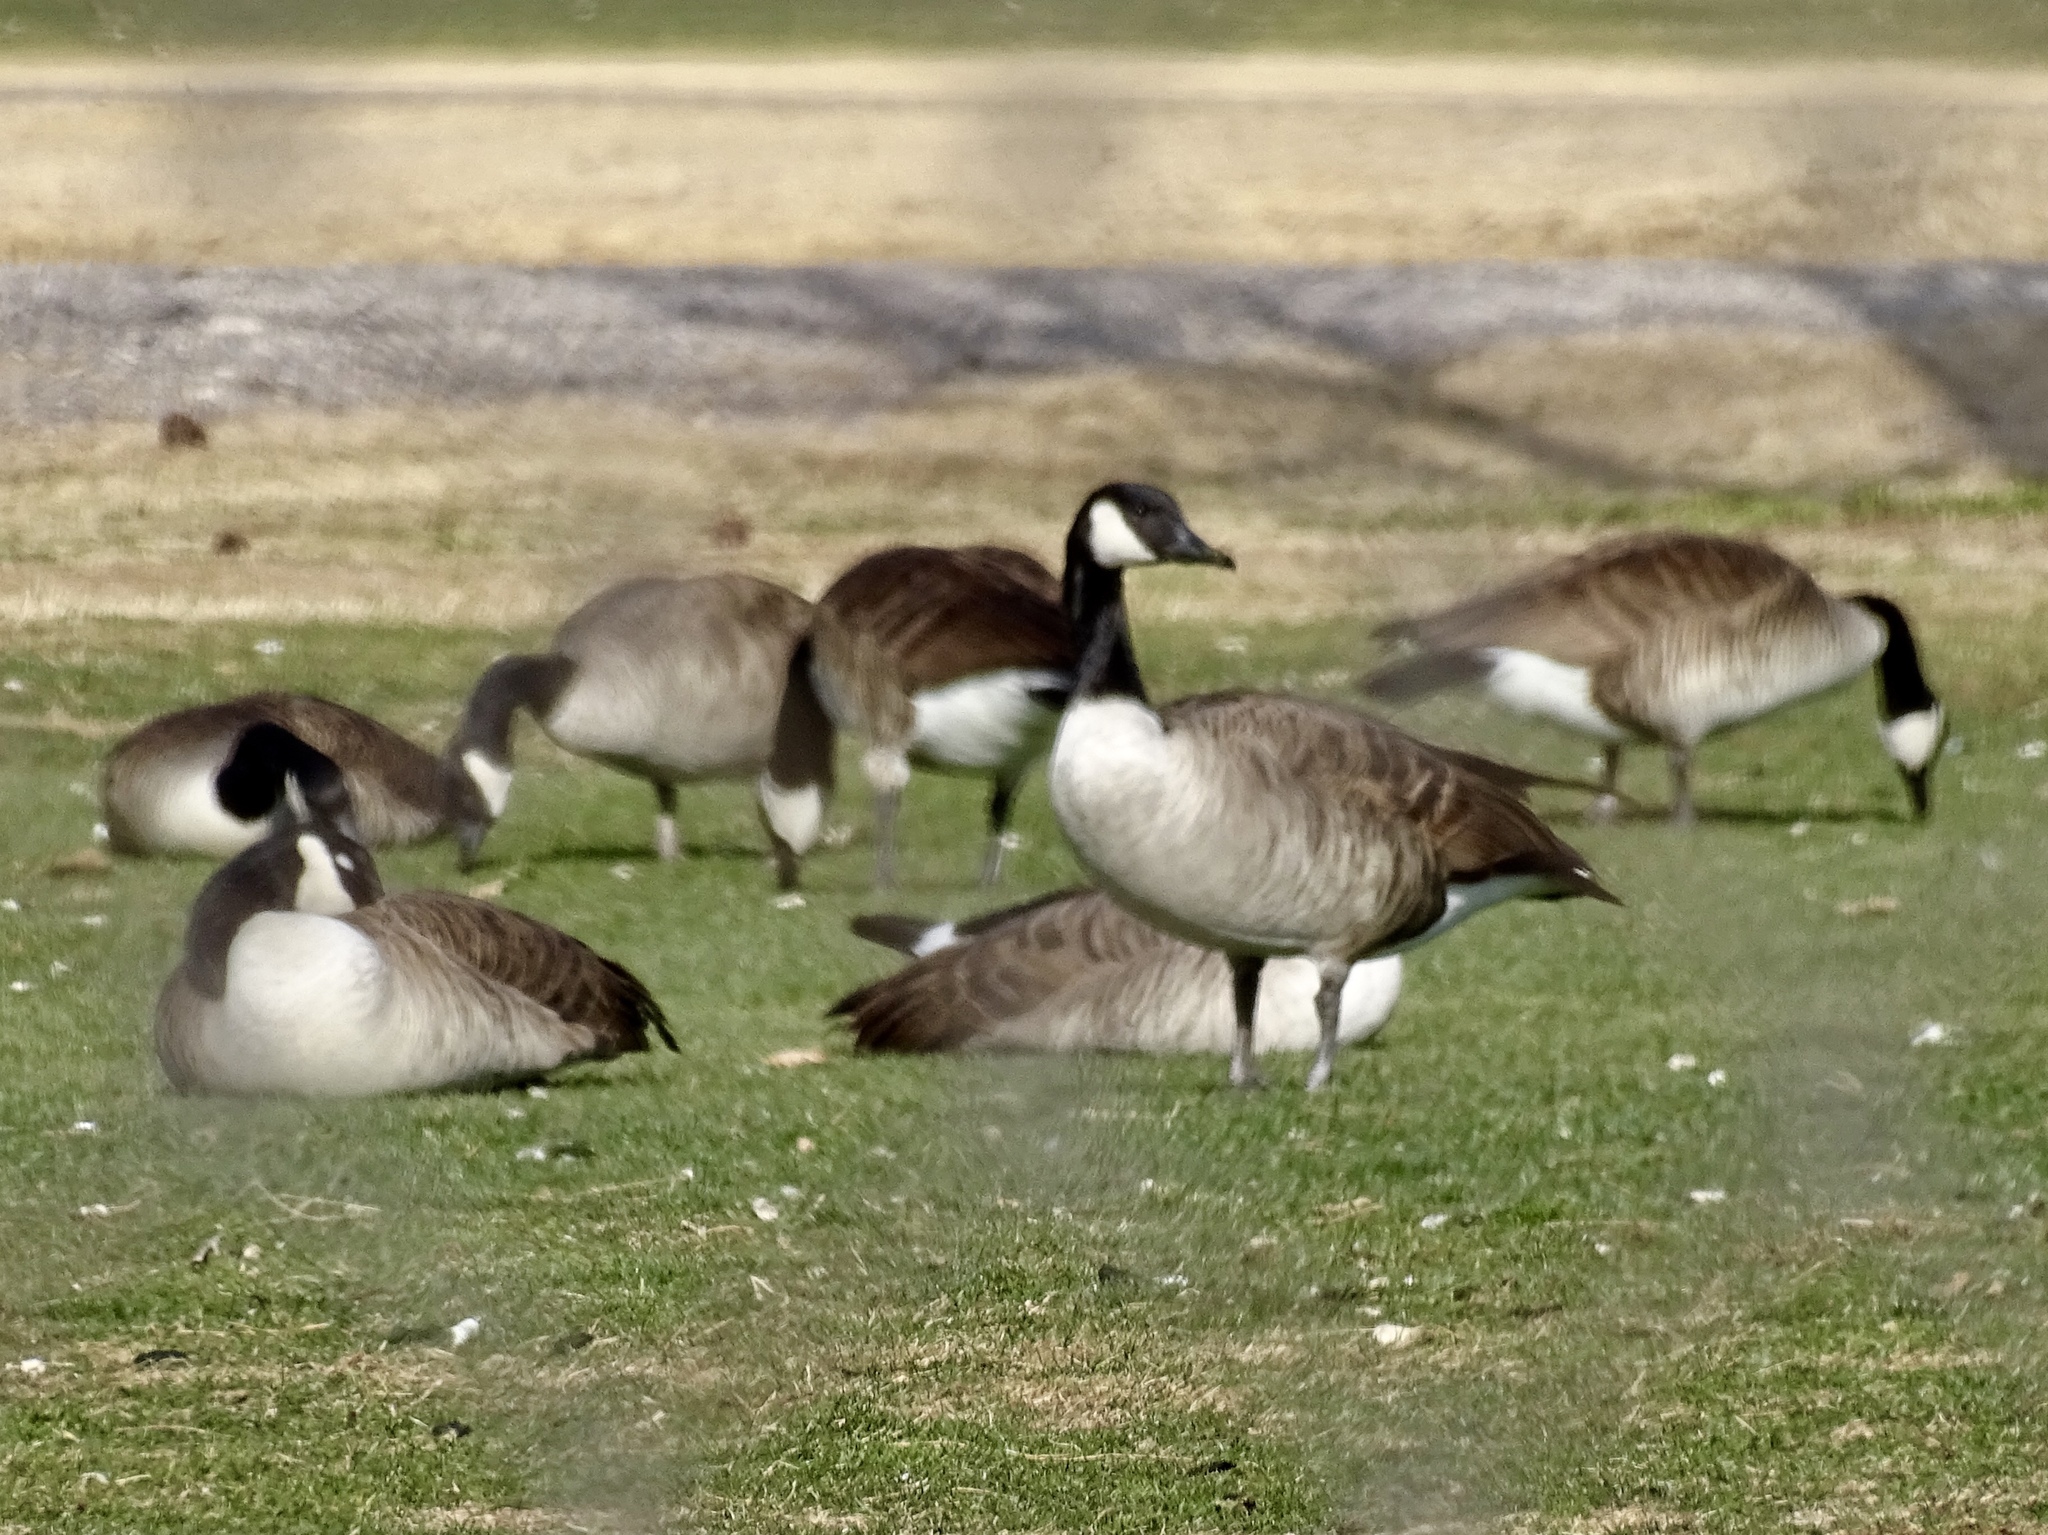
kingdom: Animalia
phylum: Chordata
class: Aves
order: Anseriformes
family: Anatidae
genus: Branta
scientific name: Branta canadensis
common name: Canada goose
